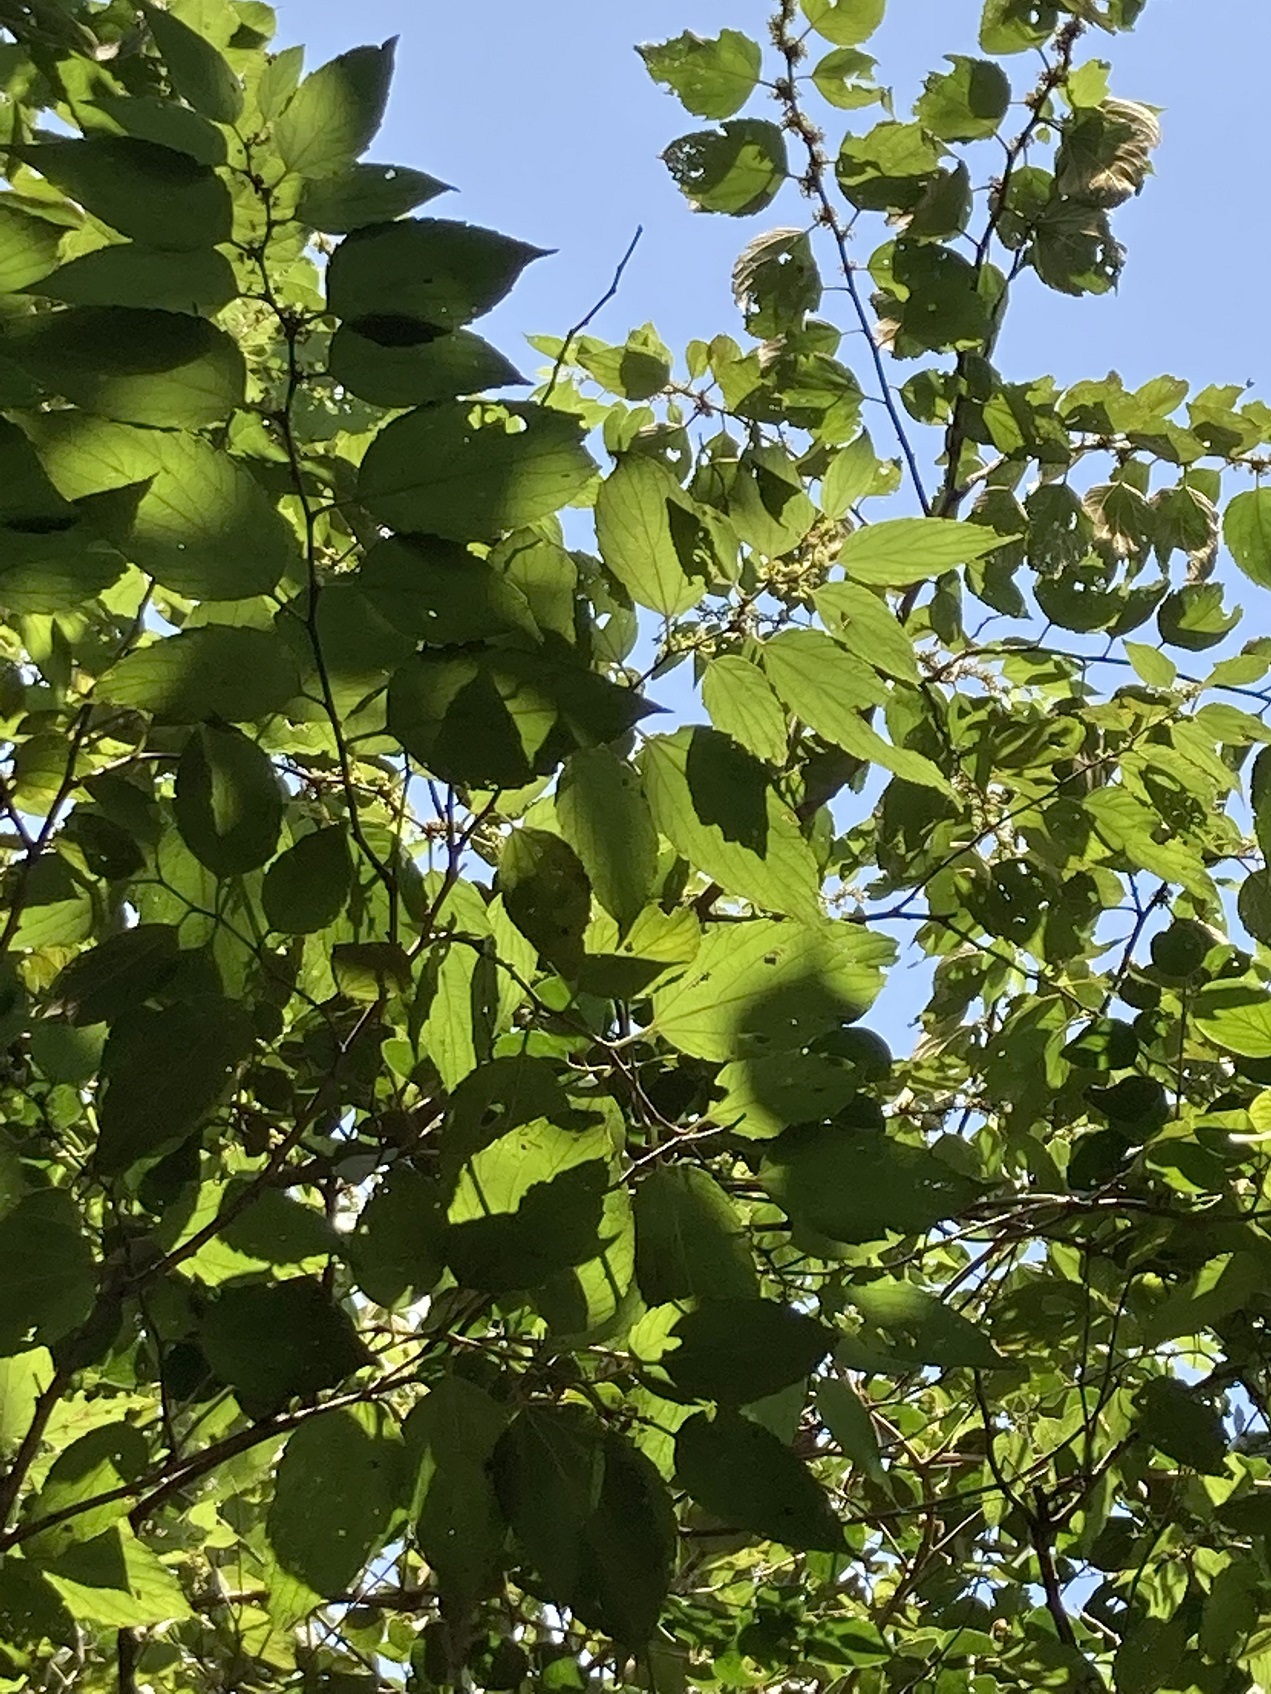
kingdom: Plantae
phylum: Tracheophyta
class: Magnoliopsida
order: Rosales
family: Rhamnaceae
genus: Colubrina
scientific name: Colubrina arborescens
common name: Wild coffee
